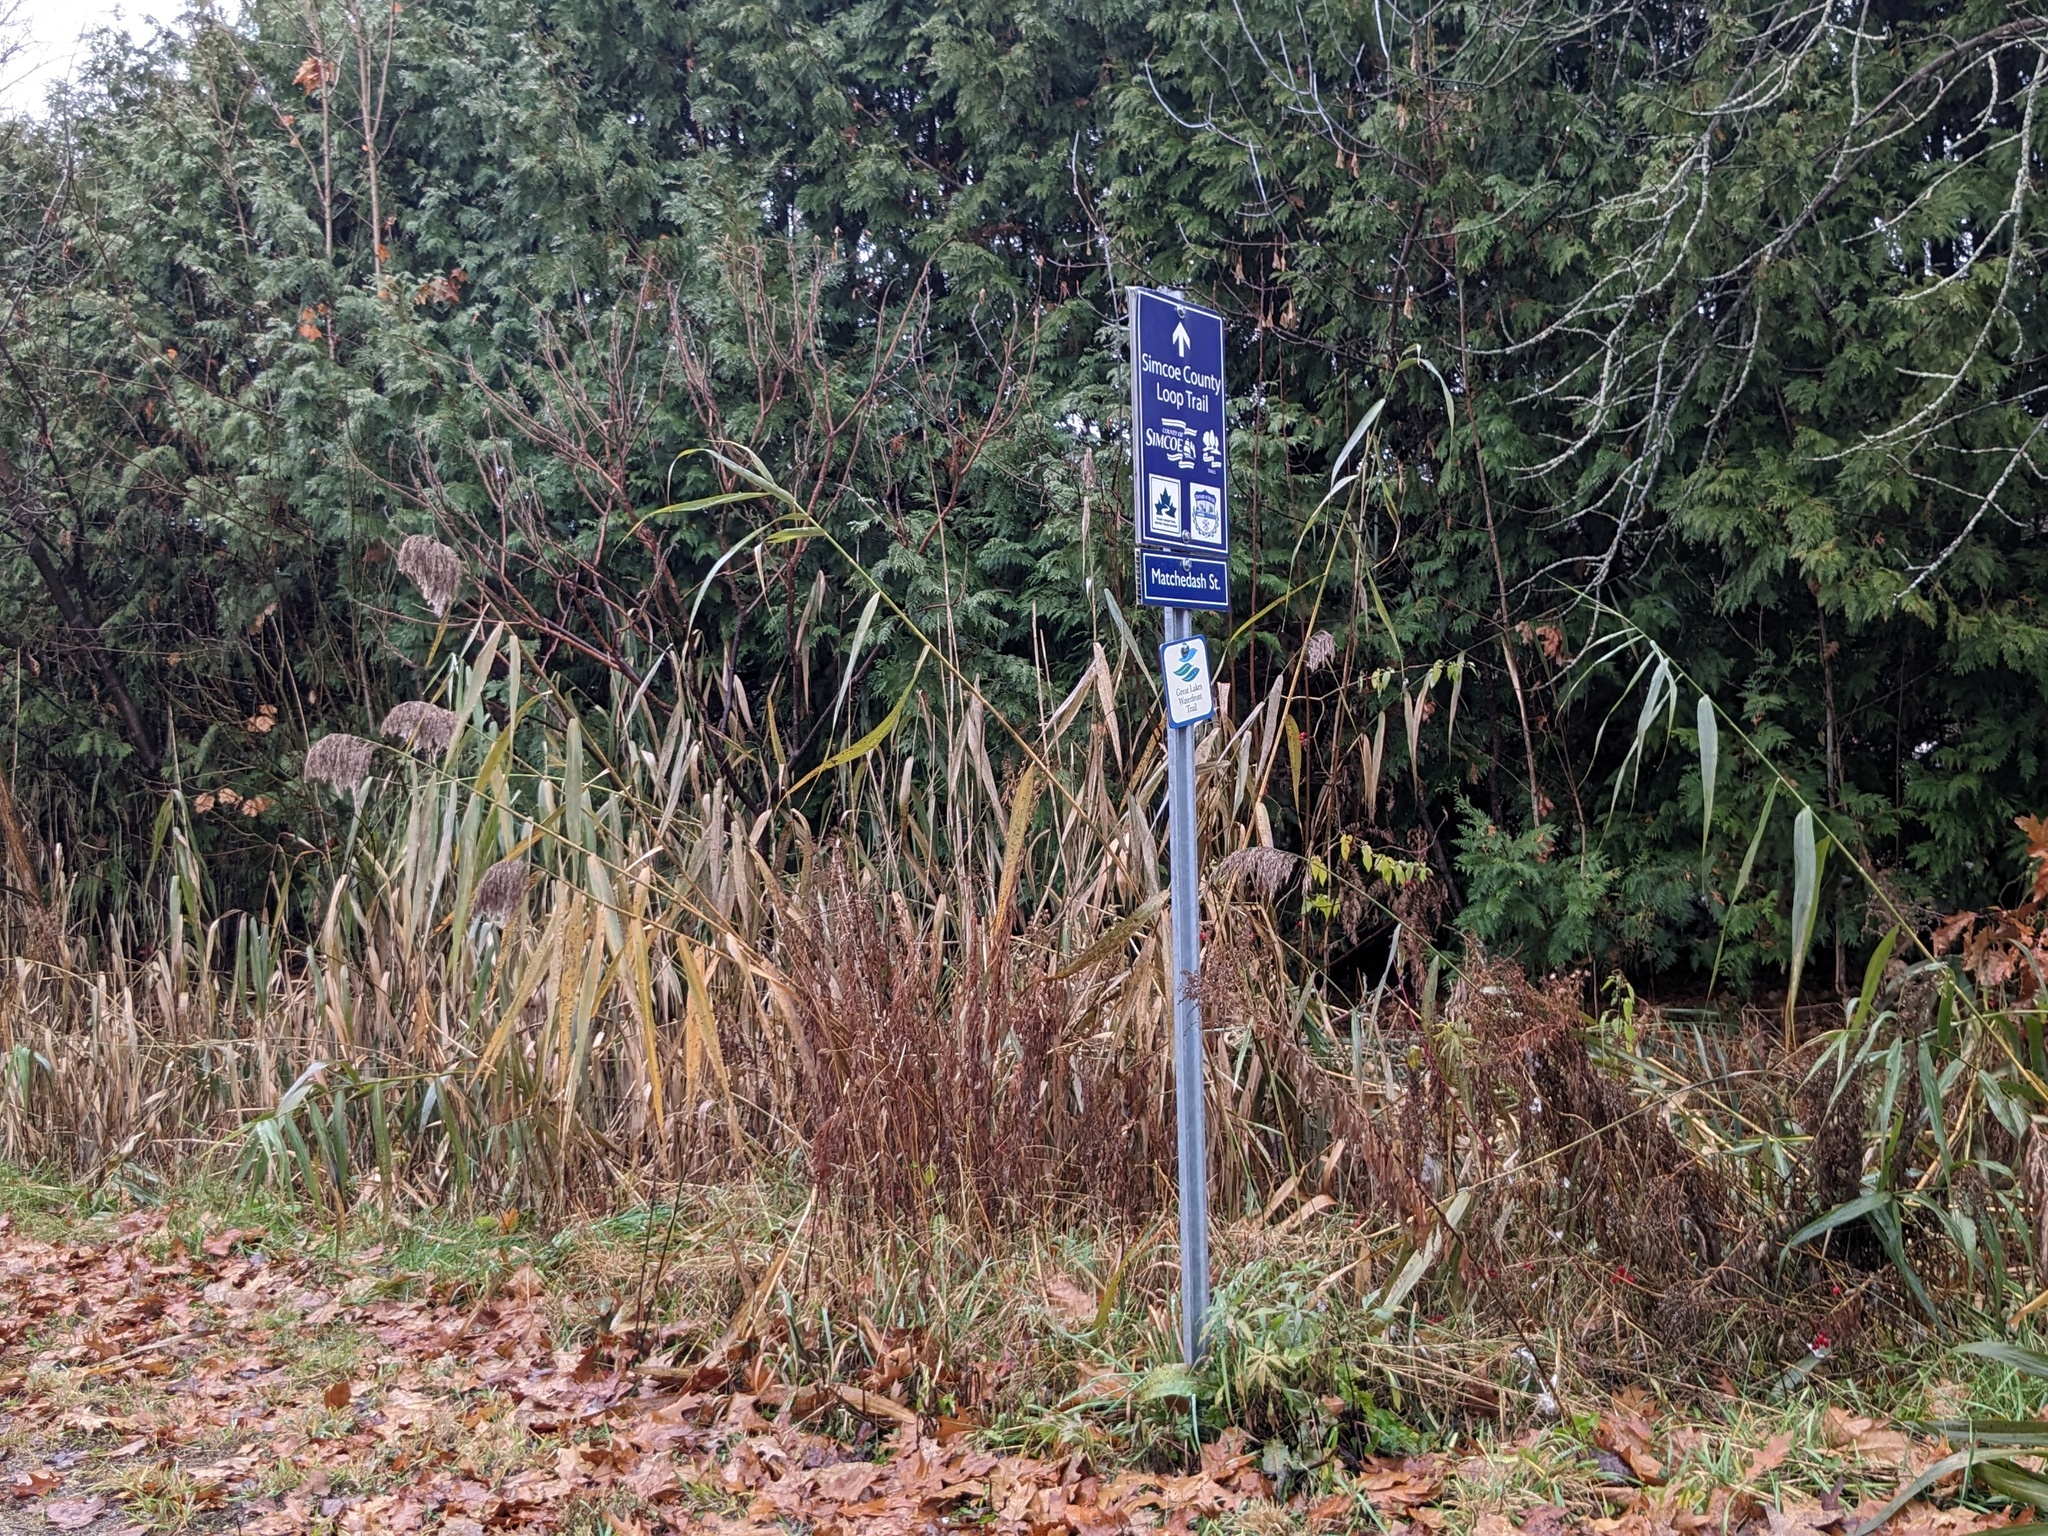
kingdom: Plantae
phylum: Tracheophyta
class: Liliopsida
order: Poales
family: Poaceae
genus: Phragmites
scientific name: Phragmites australis
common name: Common reed
